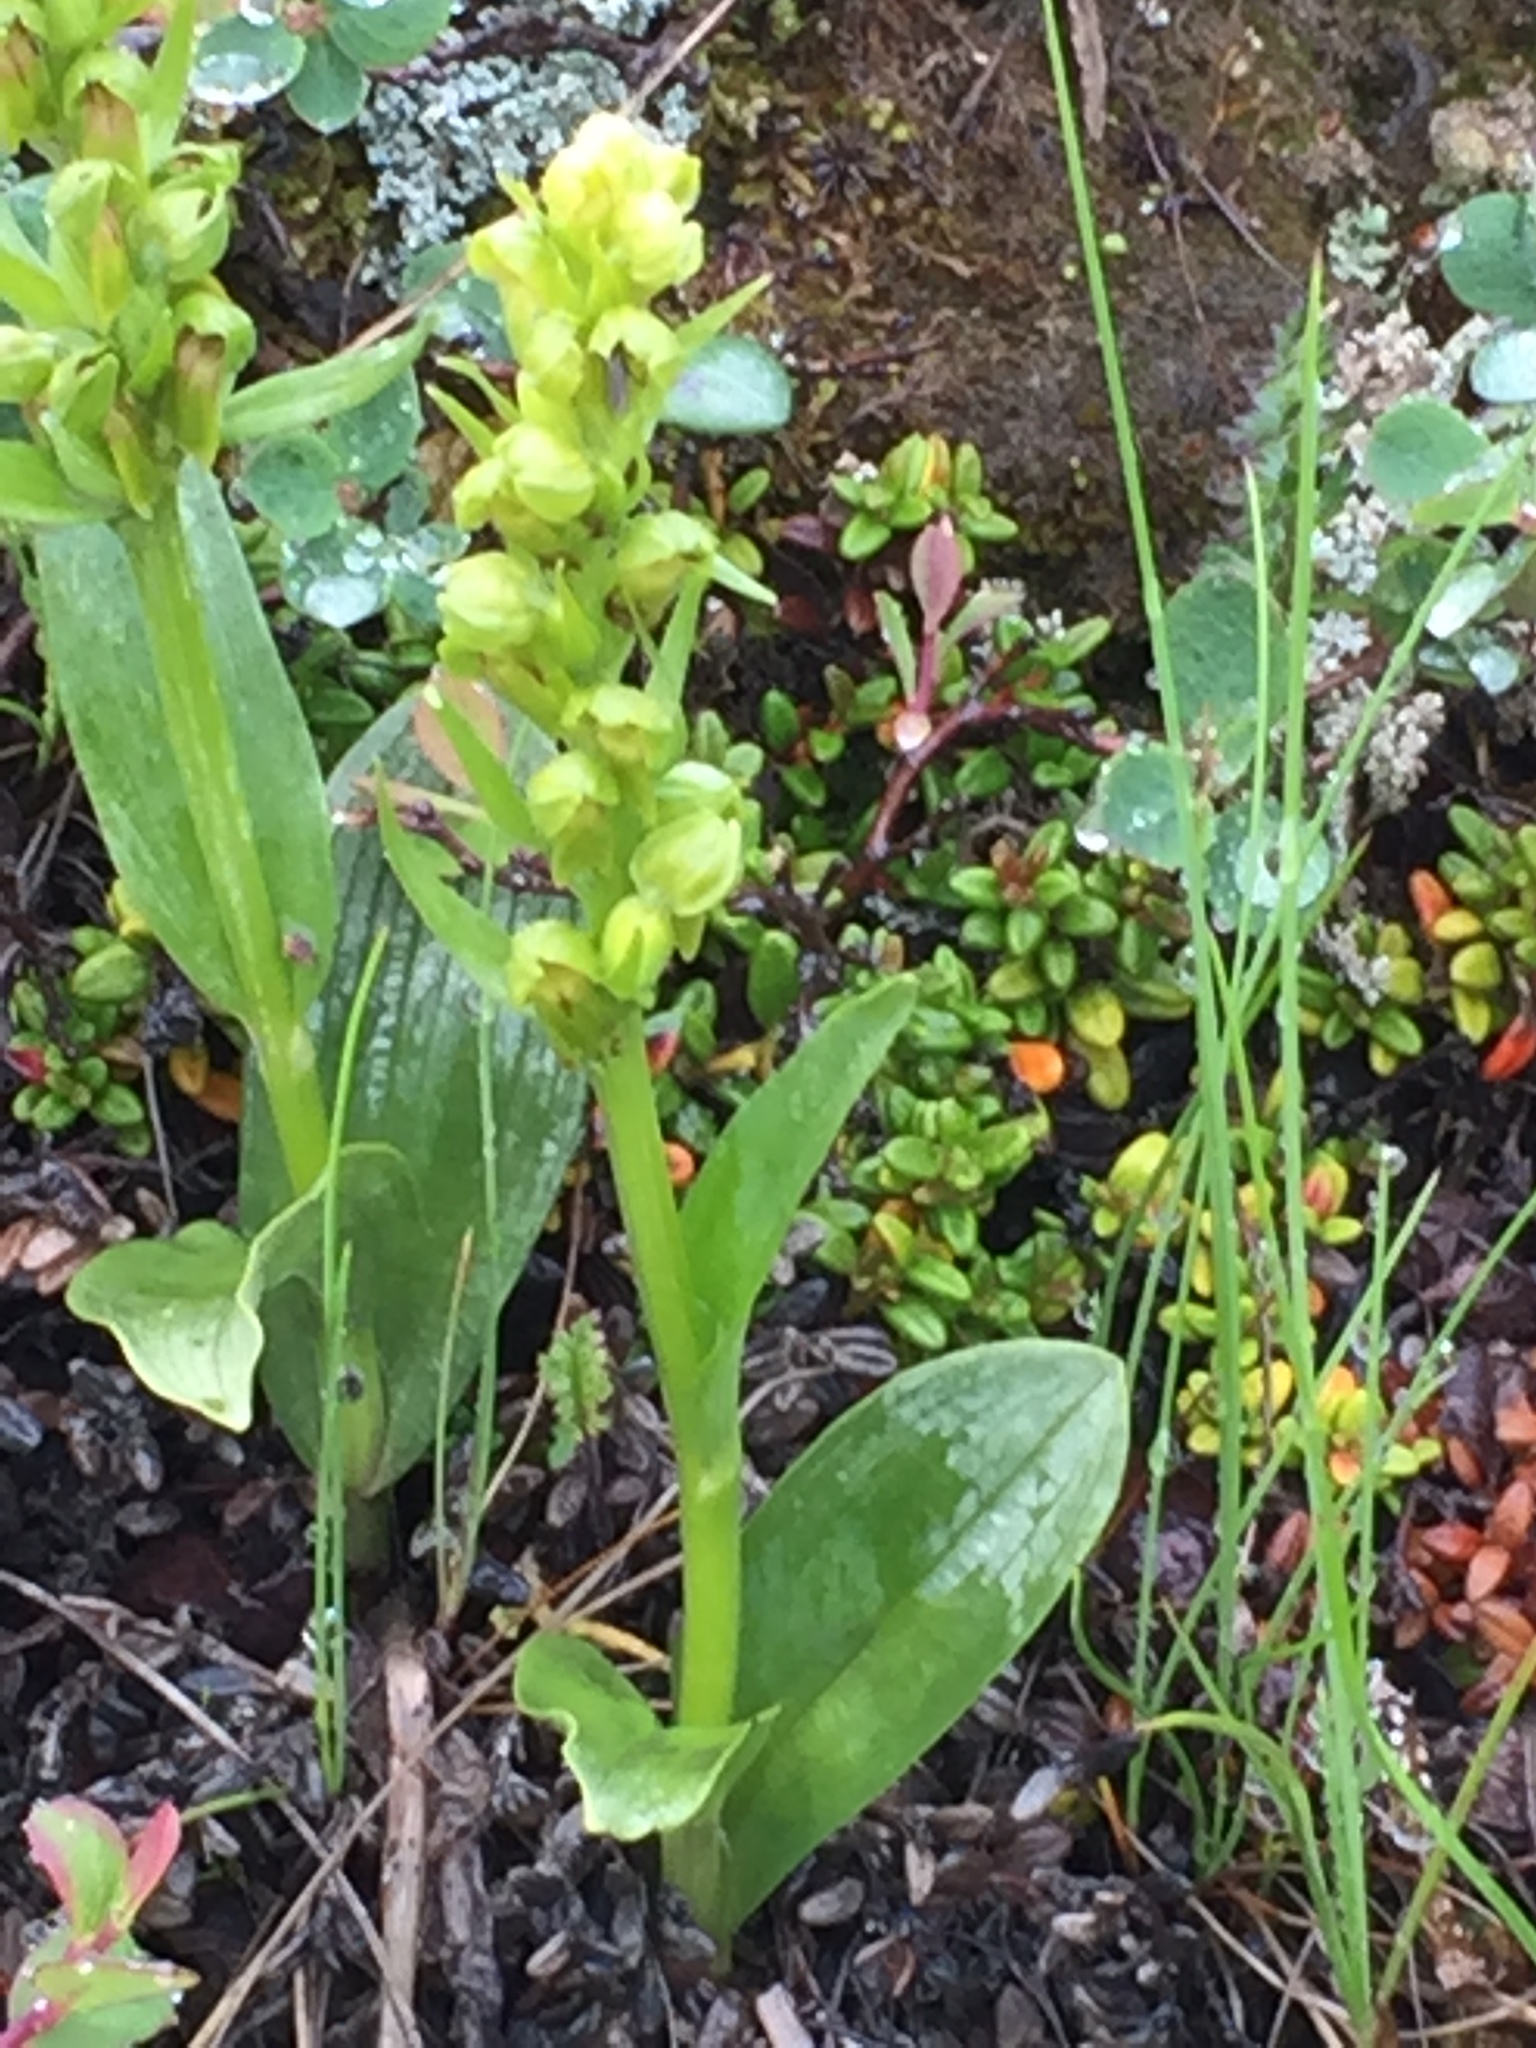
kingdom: Plantae
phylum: Tracheophyta
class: Liliopsida
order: Asparagales
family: Orchidaceae
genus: Dactylorhiza
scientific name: Dactylorhiza viridis
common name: Longbract frog orchid
